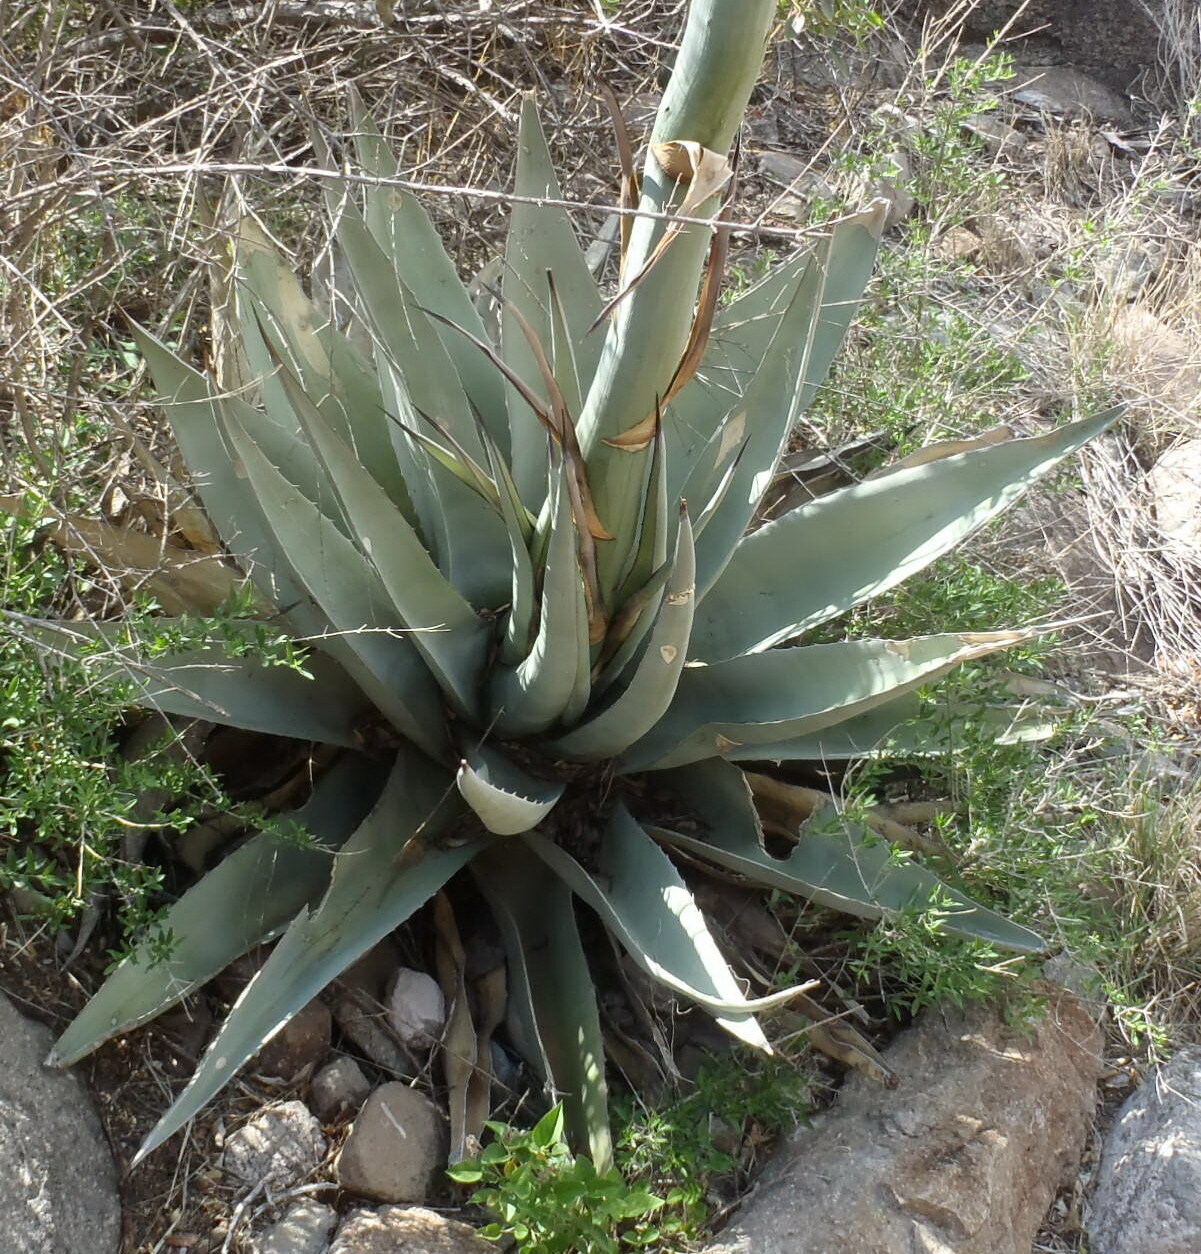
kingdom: Plantae
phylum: Tracheophyta
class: Liliopsida
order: Asparagales
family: Asparagaceae
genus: Agave
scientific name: Agave havardiana
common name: Havard agave
